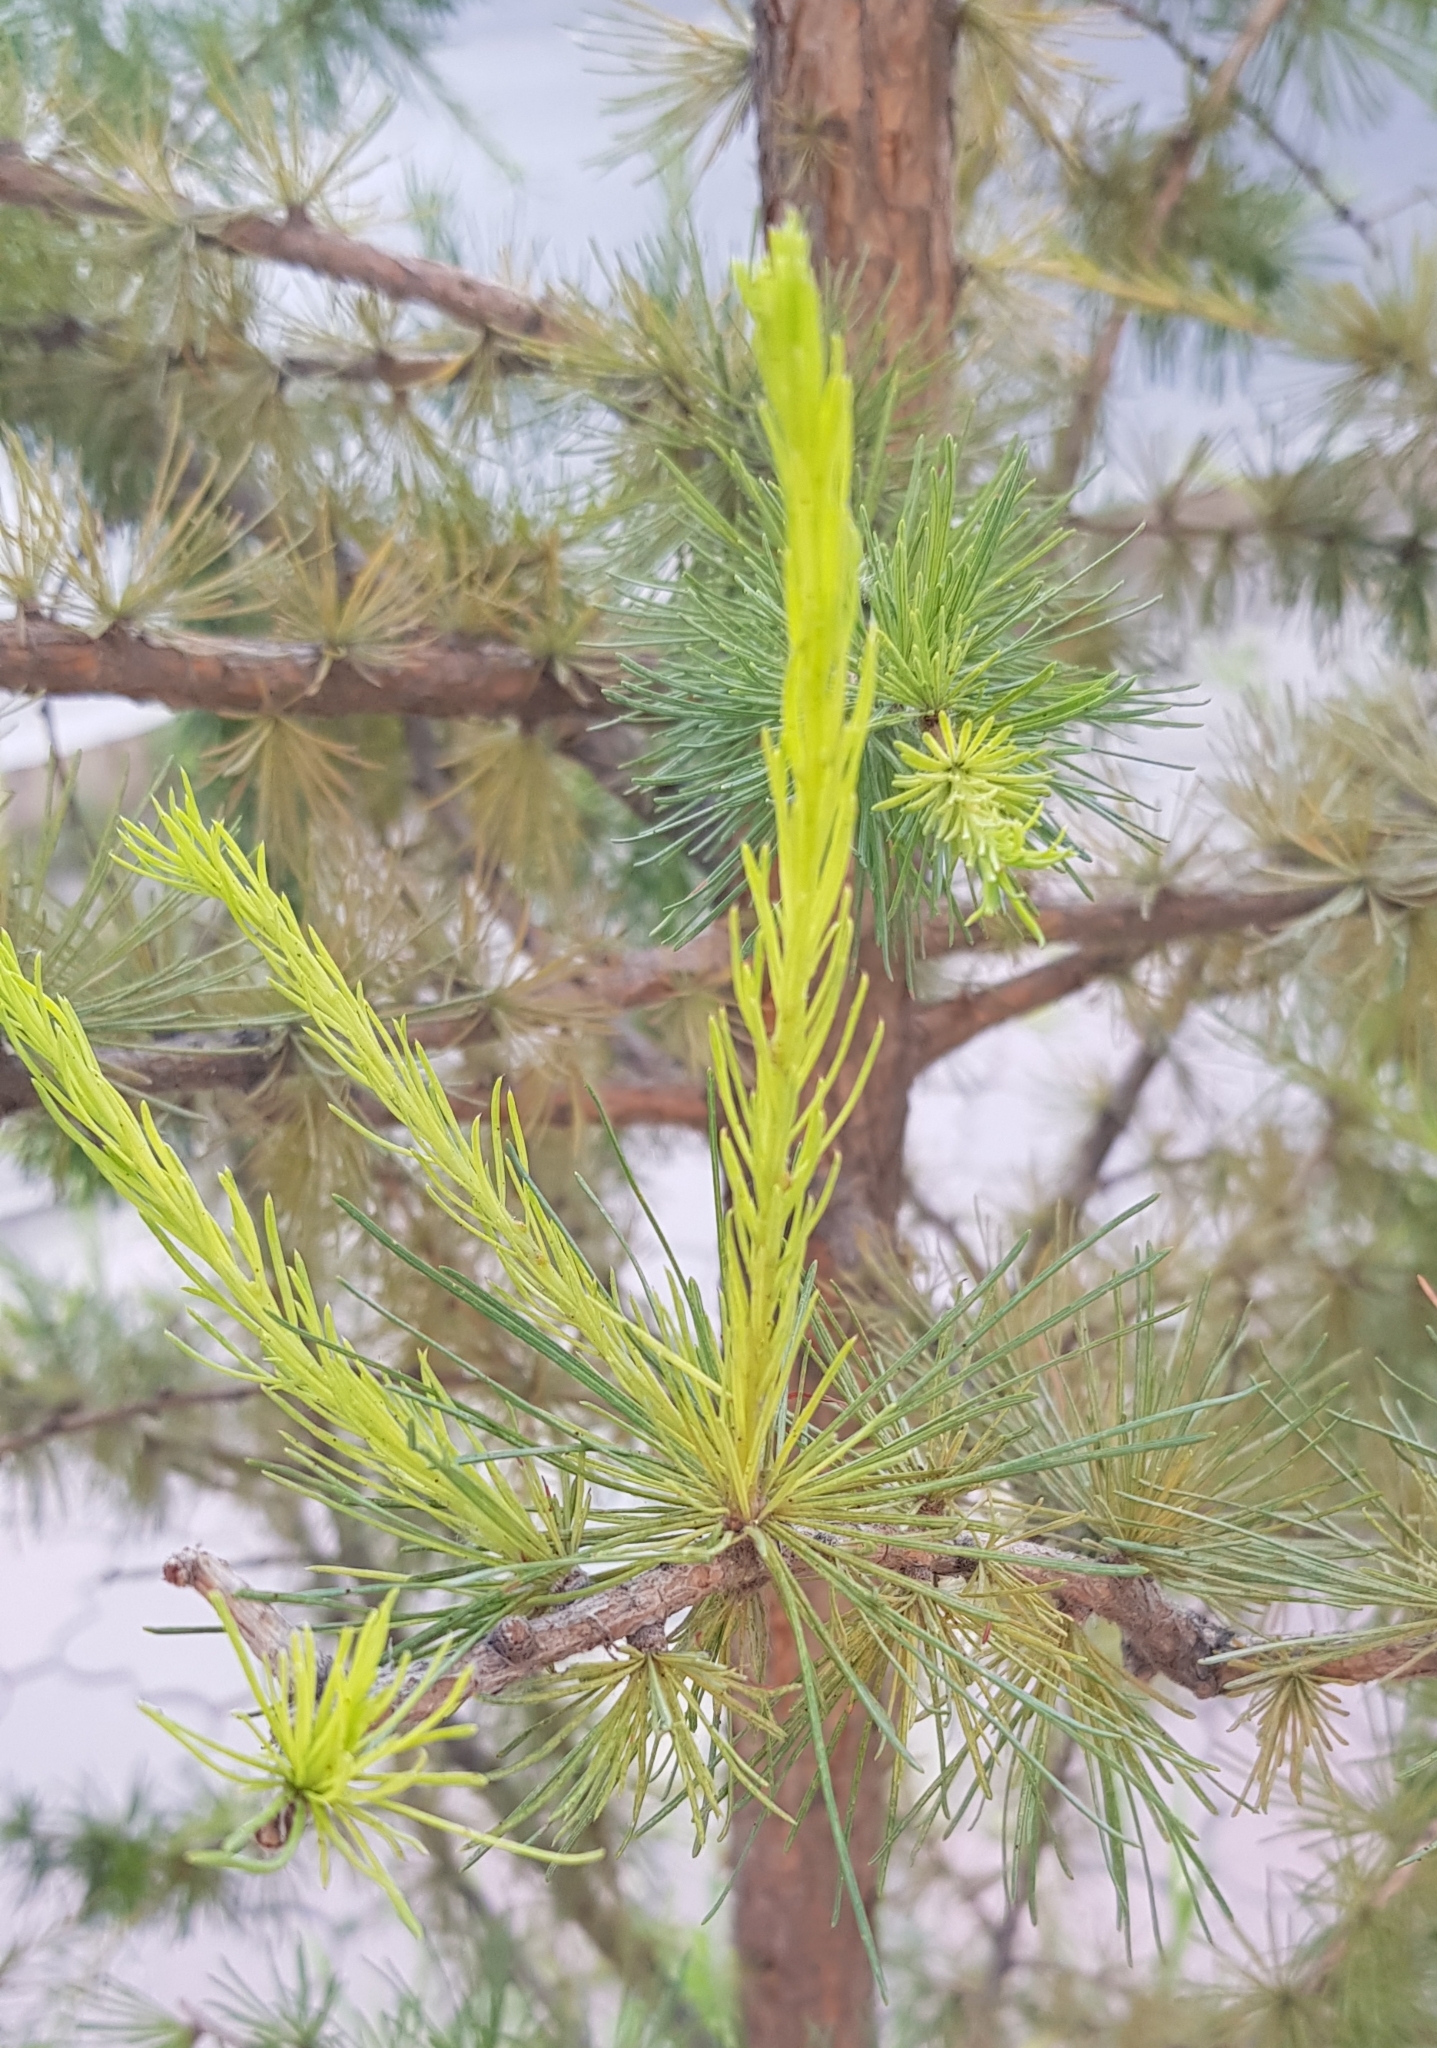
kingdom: Plantae
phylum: Tracheophyta
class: Pinopsida
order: Pinales
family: Pinaceae
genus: Larix
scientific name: Larix sibirica
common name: Siberian larch
